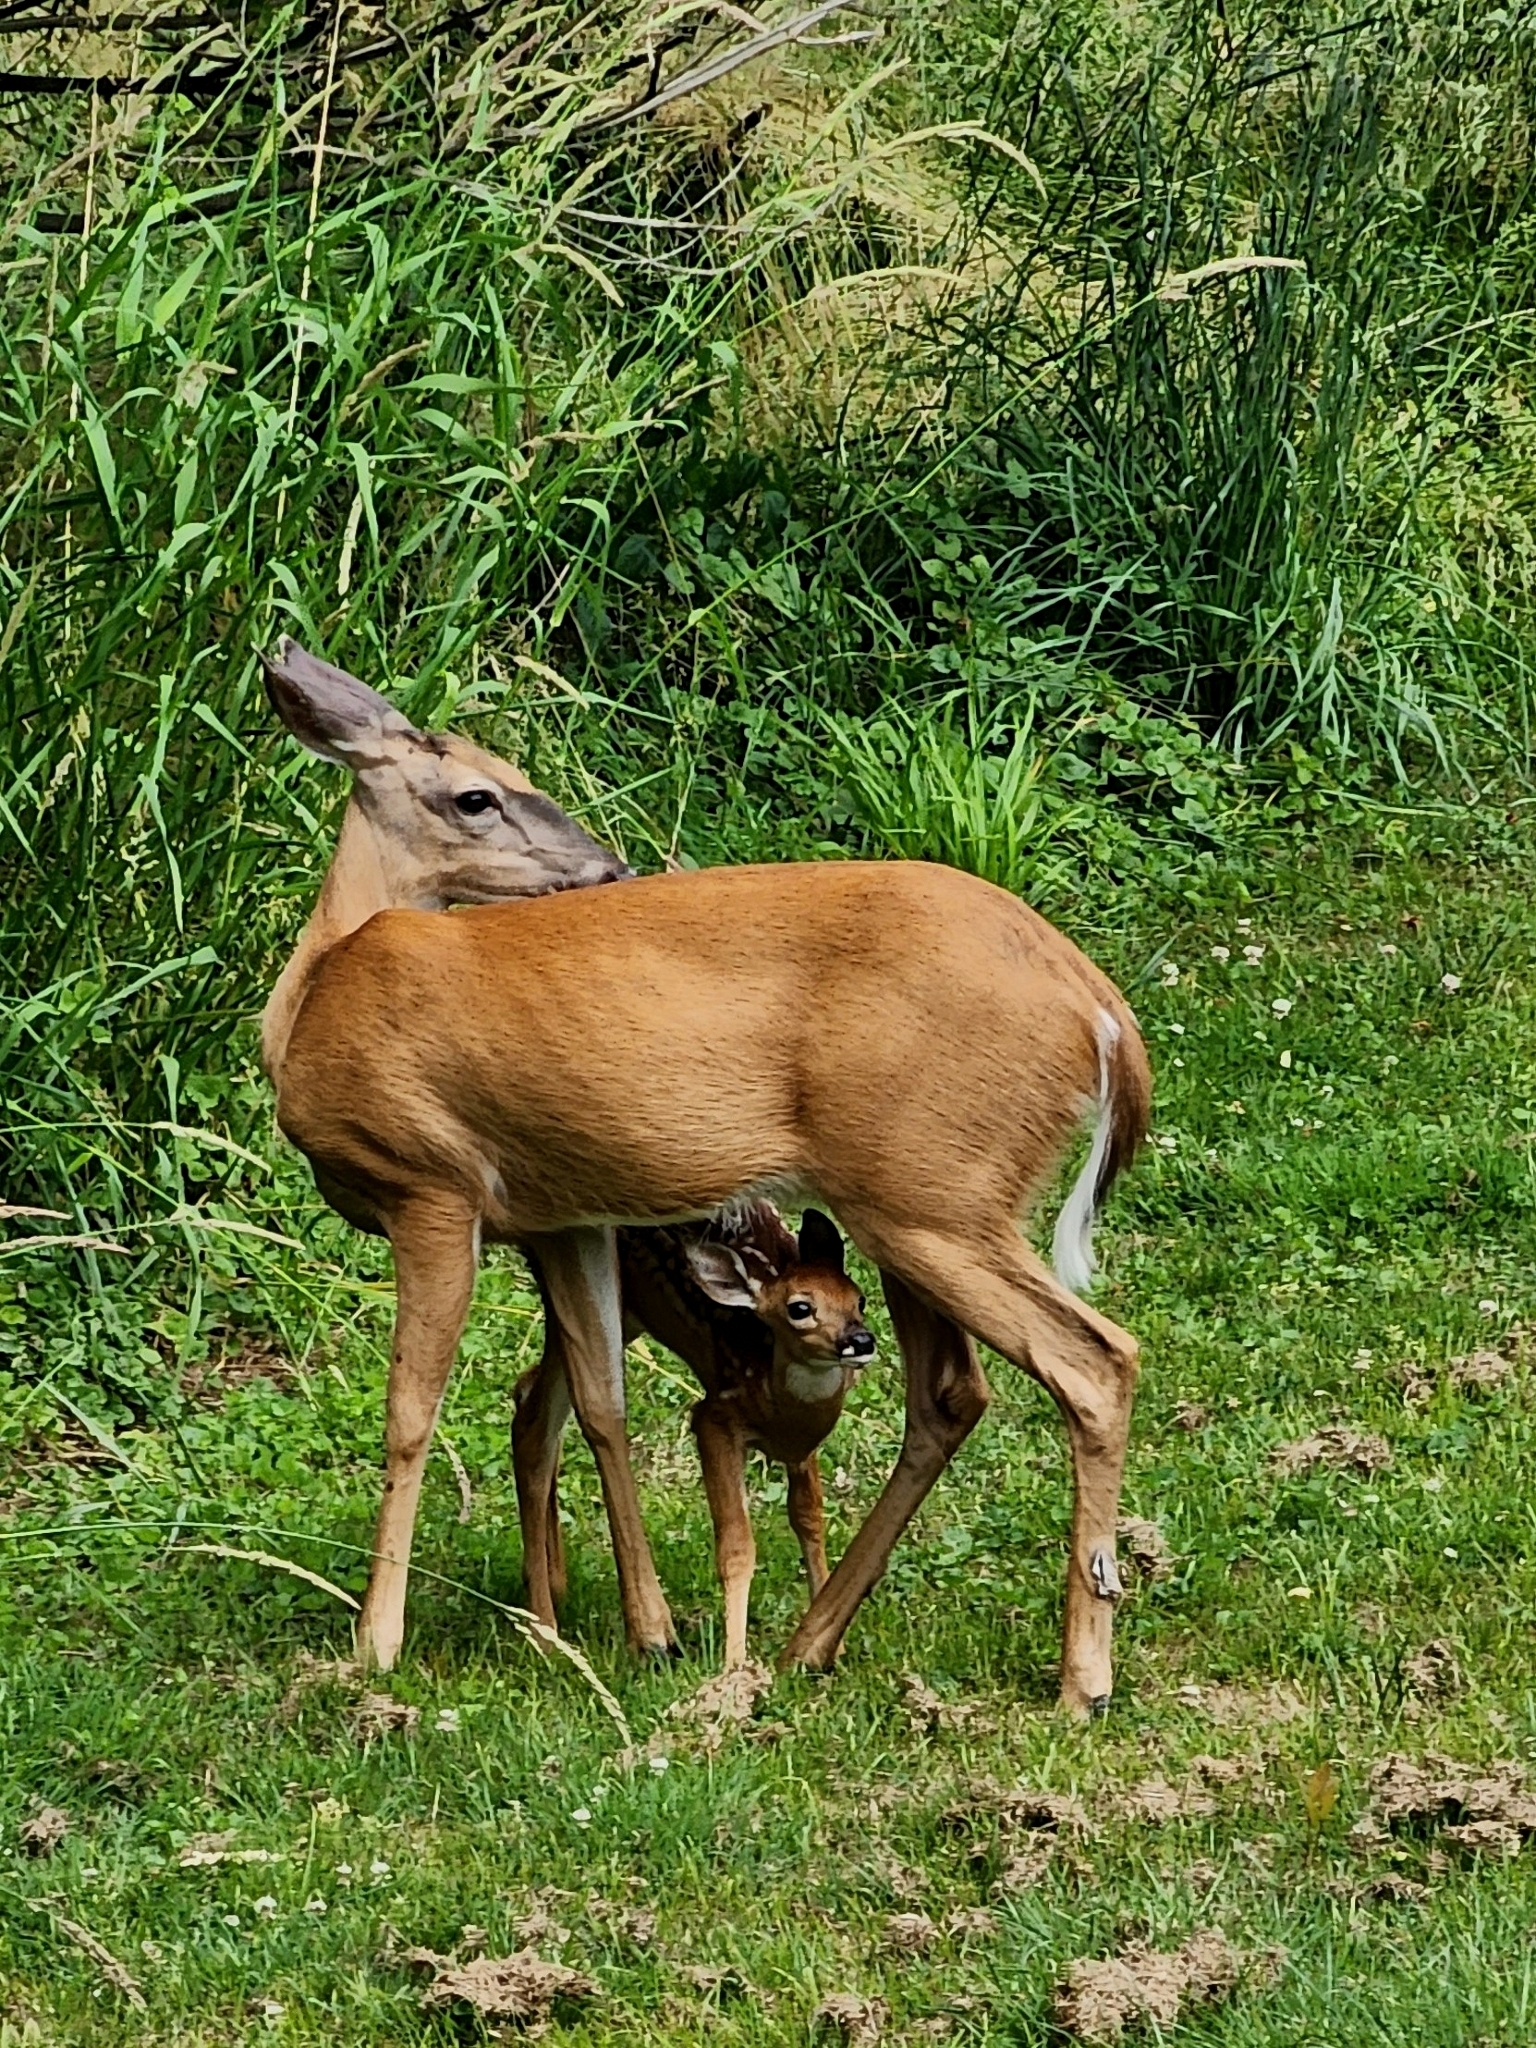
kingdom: Animalia
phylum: Chordata
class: Mammalia
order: Artiodactyla
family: Cervidae
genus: Odocoileus
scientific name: Odocoileus virginianus
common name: White-tailed deer
